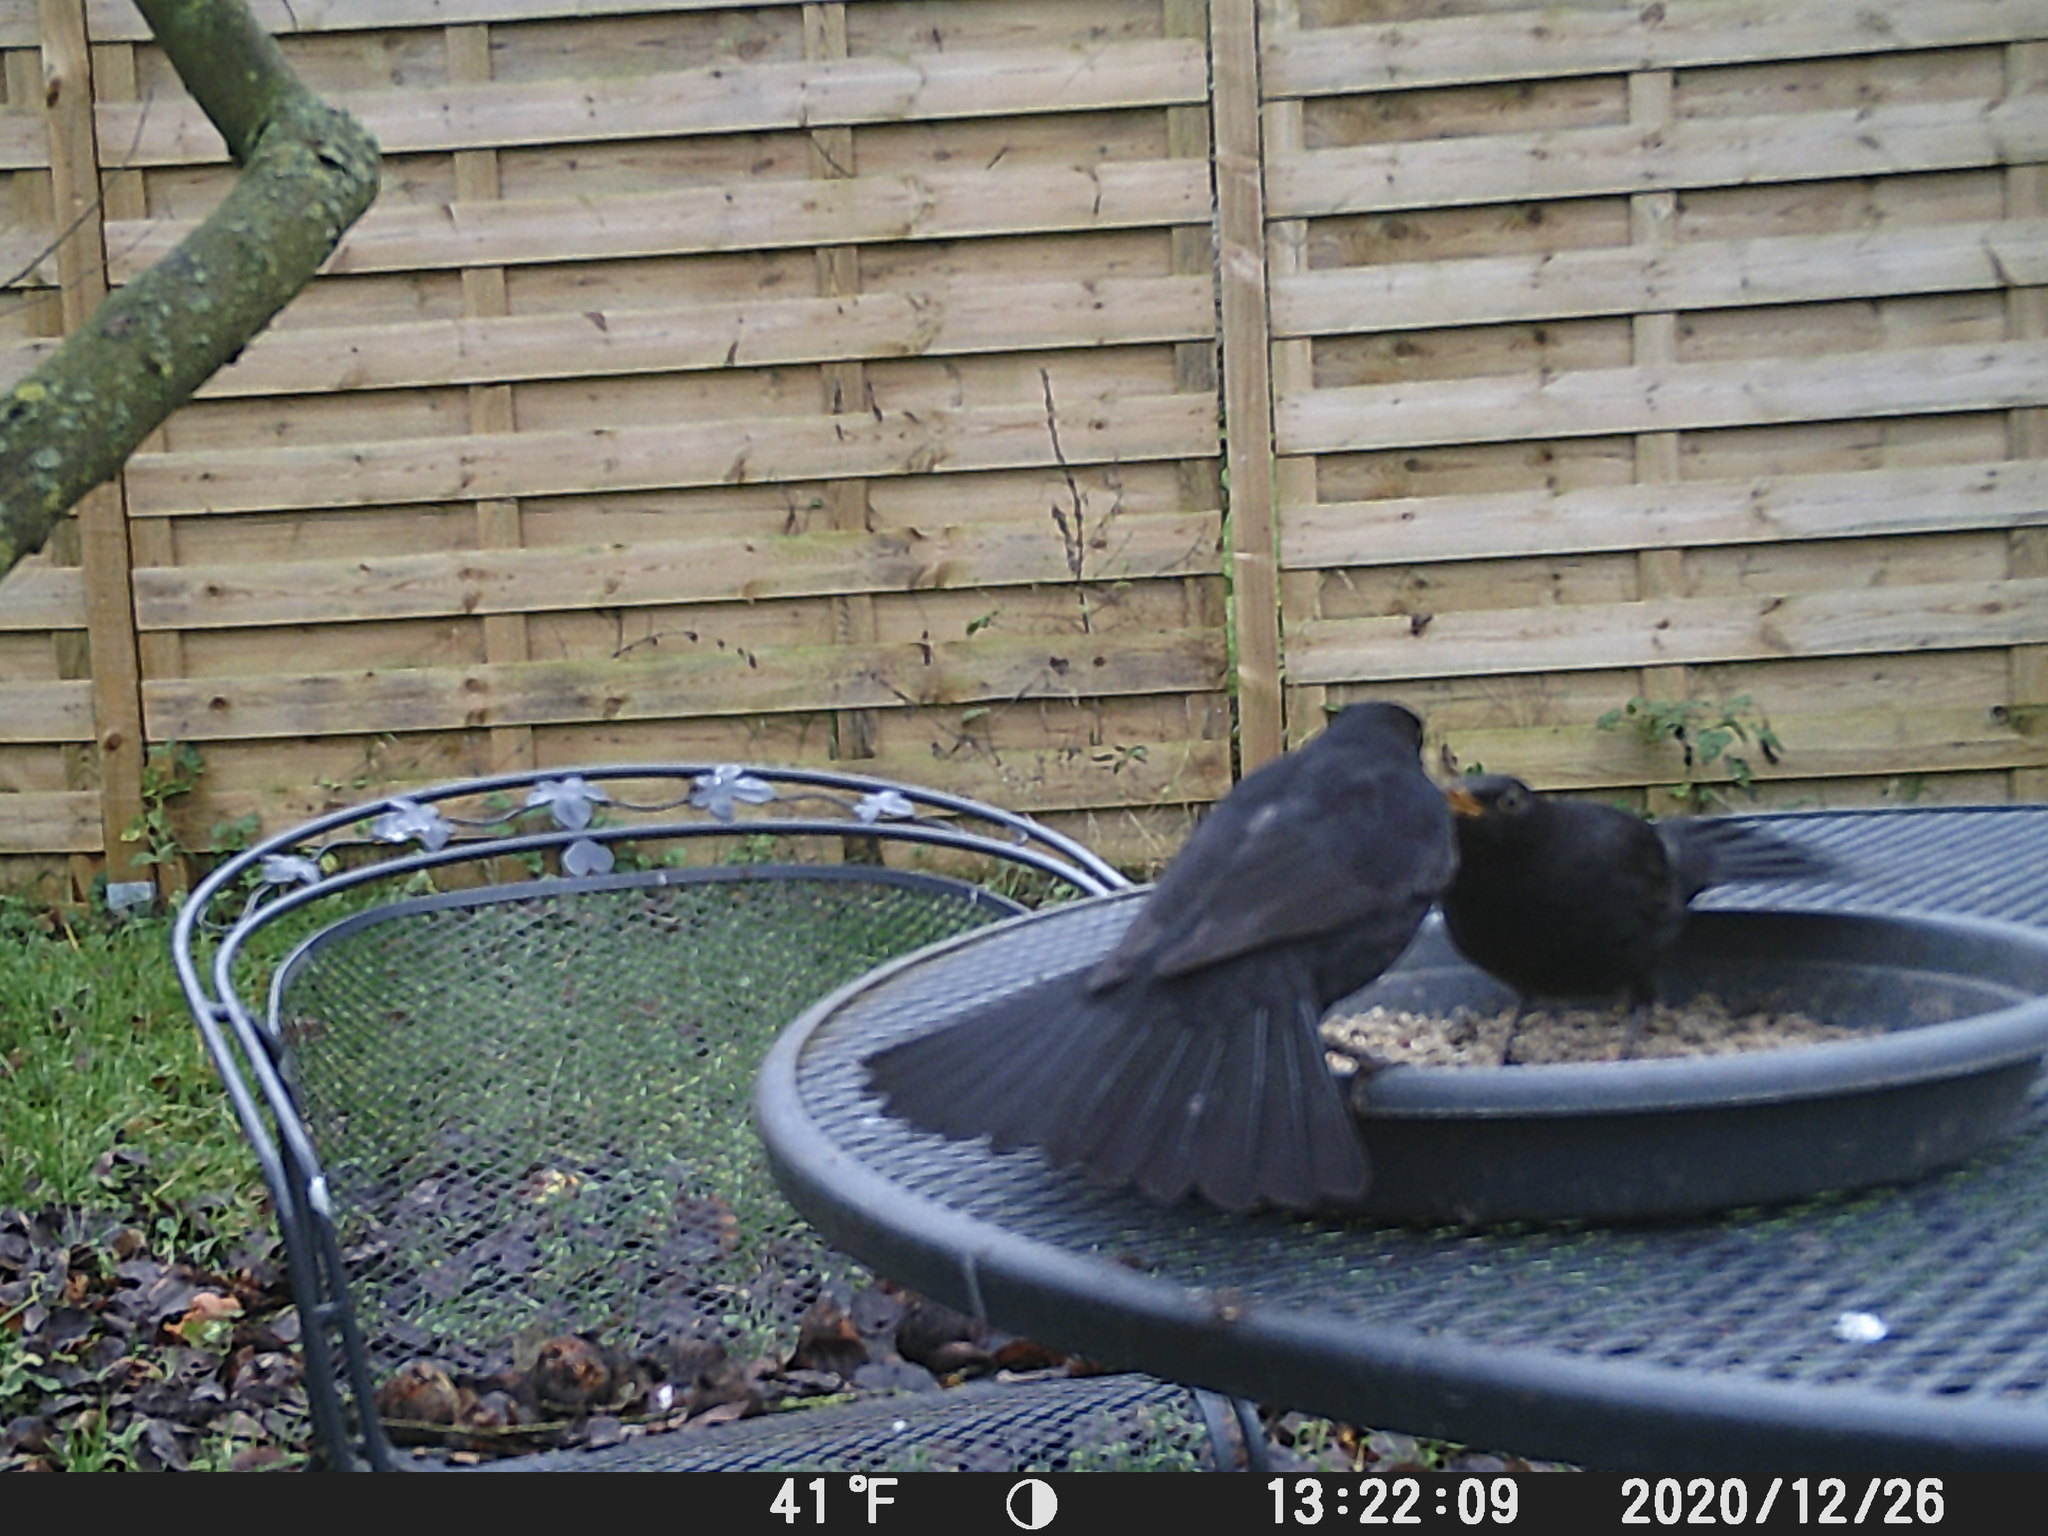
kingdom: Animalia
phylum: Chordata
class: Aves
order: Passeriformes
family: Turdidae
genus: Turdus
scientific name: Turdus merula
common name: Common blackbird
